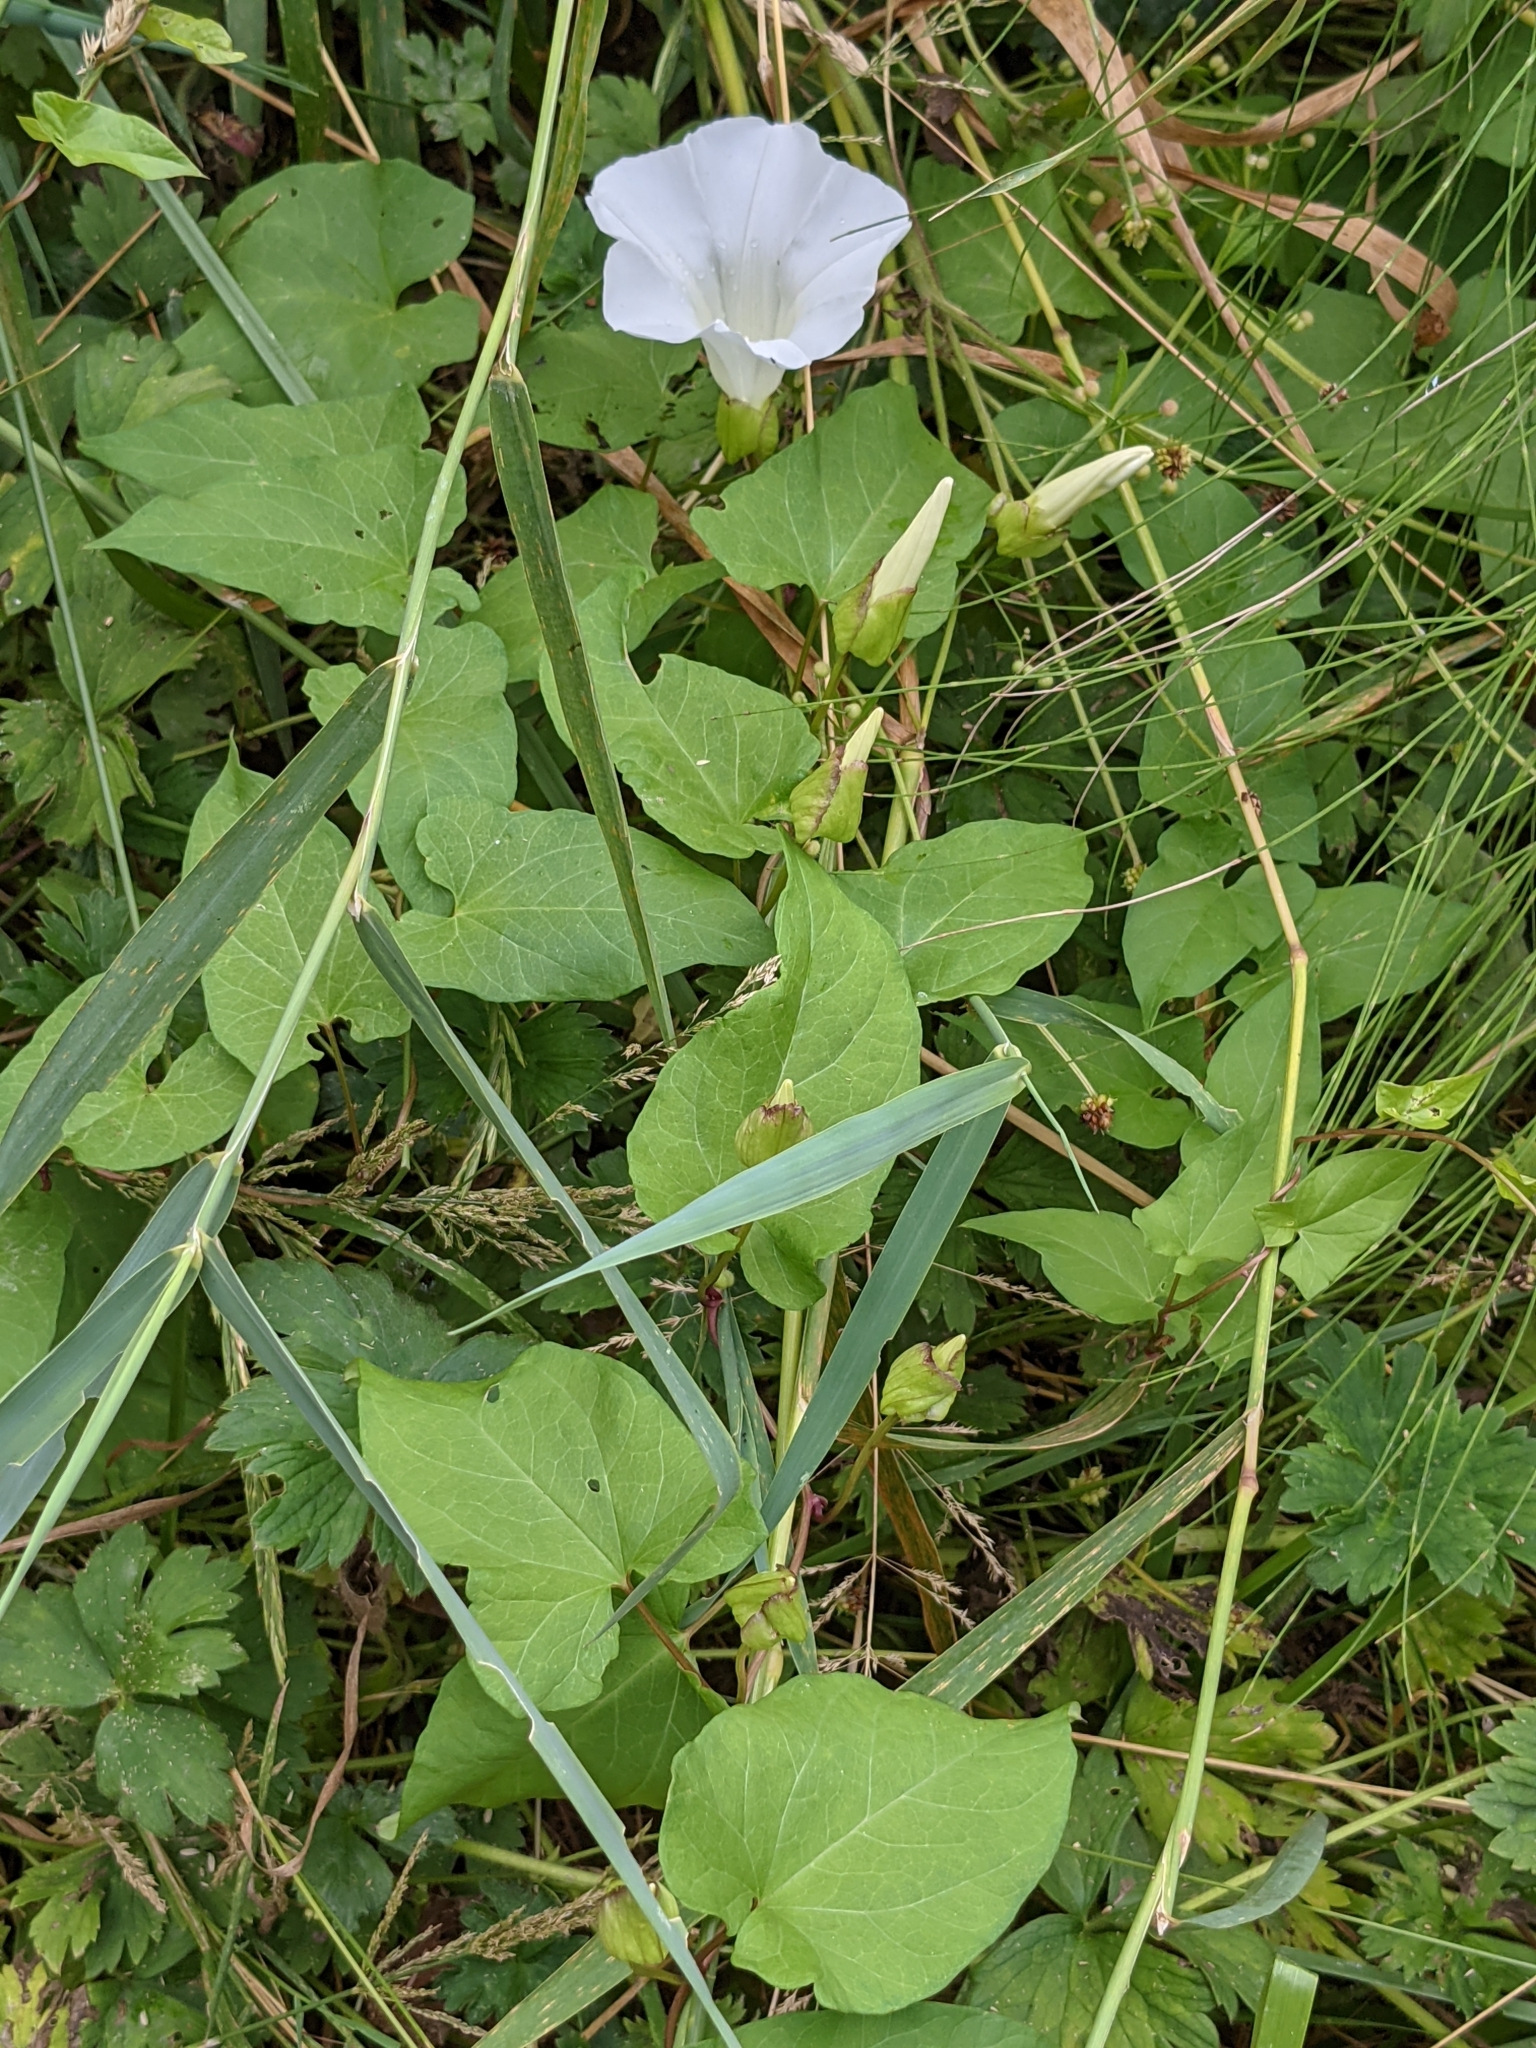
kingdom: Plantae
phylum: Tracheophyta
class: Magnoliopsida
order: Solanales
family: Convolvulaceae
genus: Calystegia
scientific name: Calystegia silvatica
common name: Large bindweed
